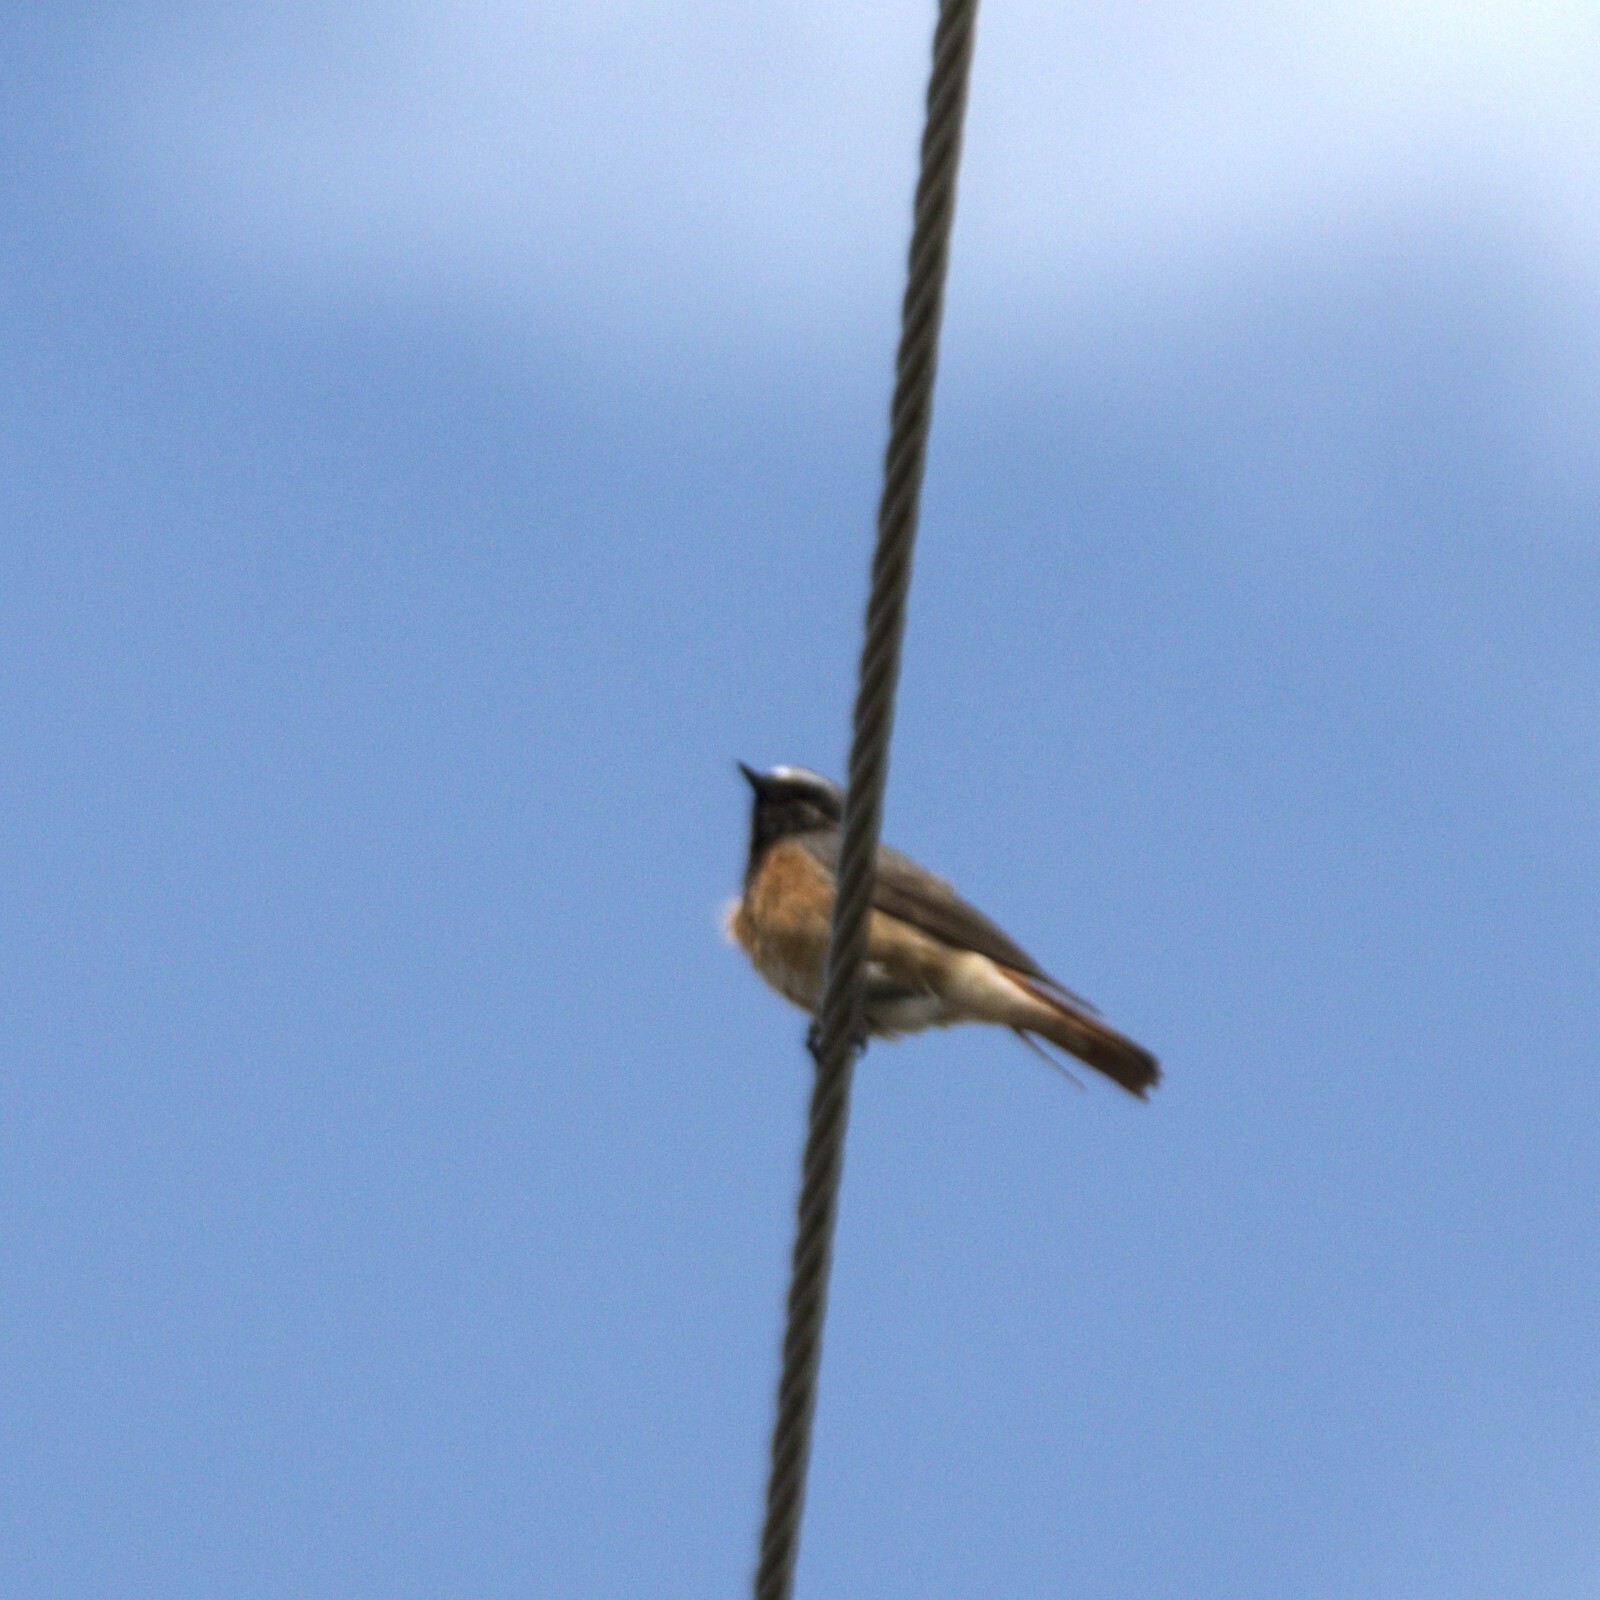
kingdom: Animalia
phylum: Chordata
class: Aves
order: Passeriformes
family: Muscicapidae
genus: Phoenicurus
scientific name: Phoenicurus phoenicurus
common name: Common redstart
